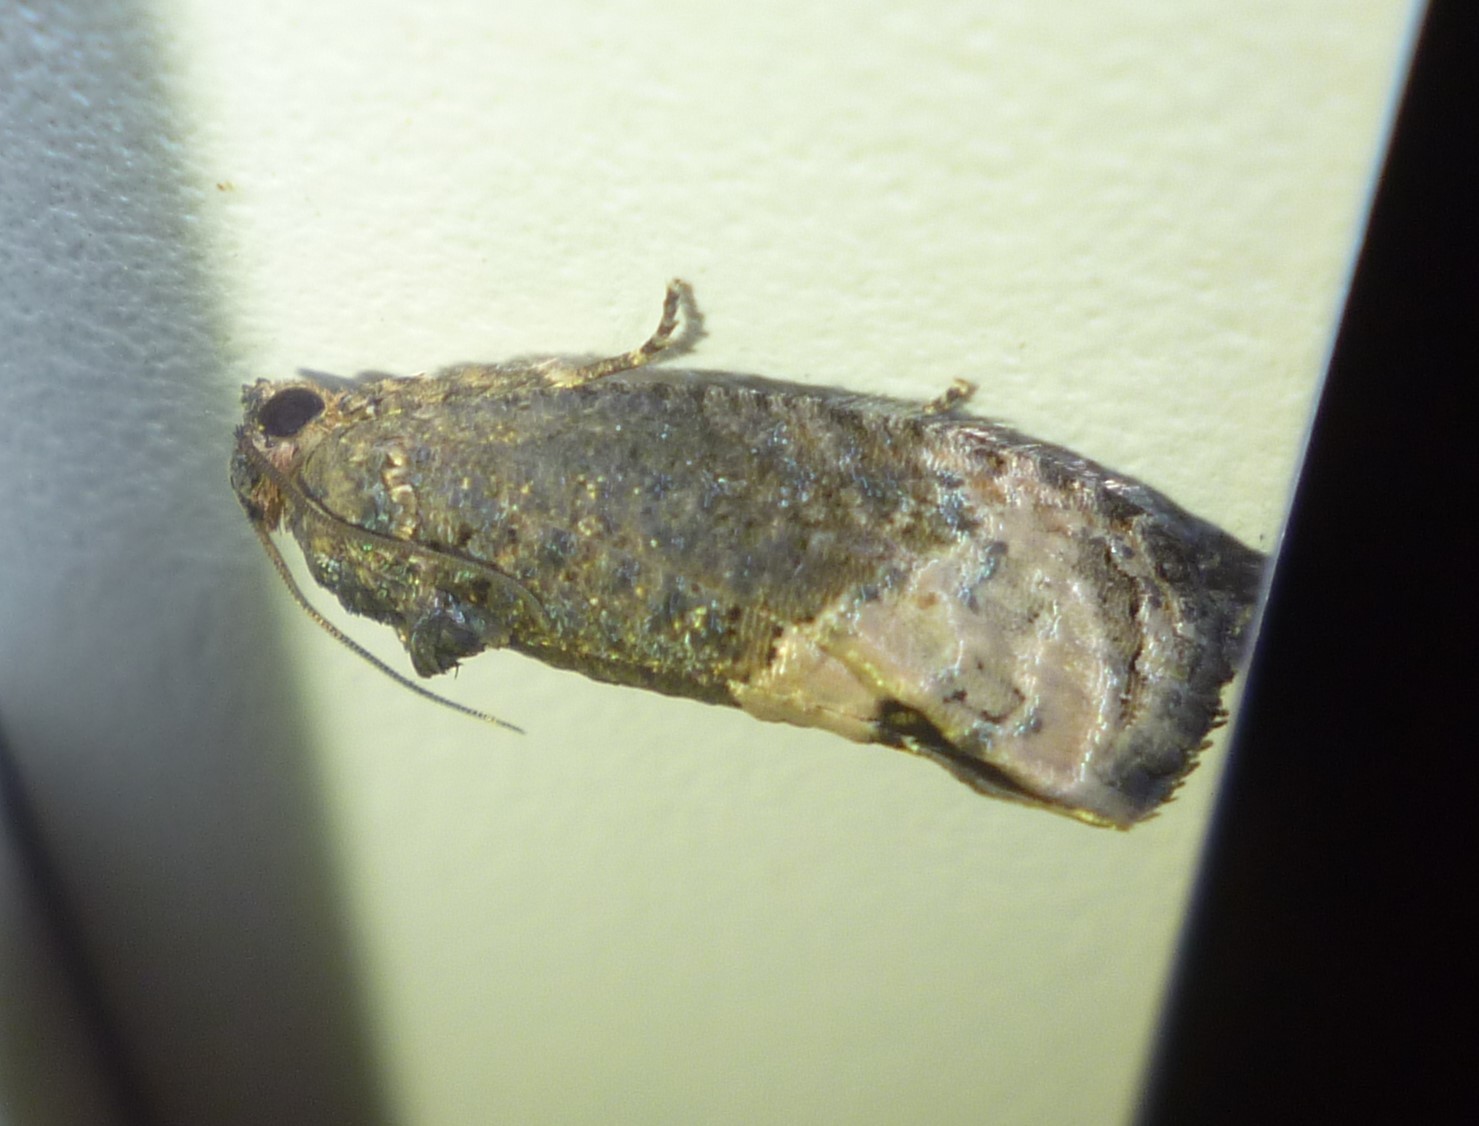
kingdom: Animalia
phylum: Arthropoda
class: Insecta
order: Lepidoptera
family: Tortricidae
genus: Ecdytolopha
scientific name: Ecdytolopha insiticiana
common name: Locust twig borer moth
